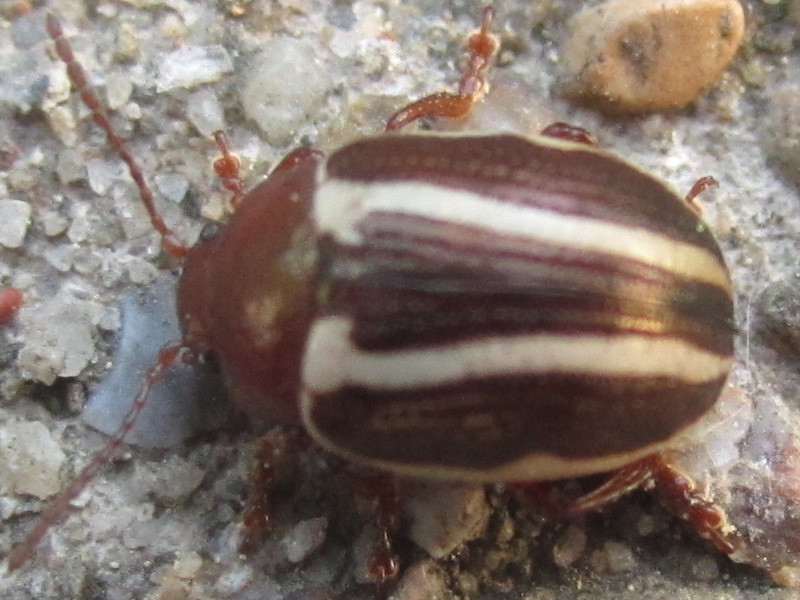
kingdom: Animalia
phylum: Arthropoda
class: Insecta
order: Coleoptera
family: Chrysomelidae
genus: Calligrapha
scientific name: Calligrapha bidenticola
